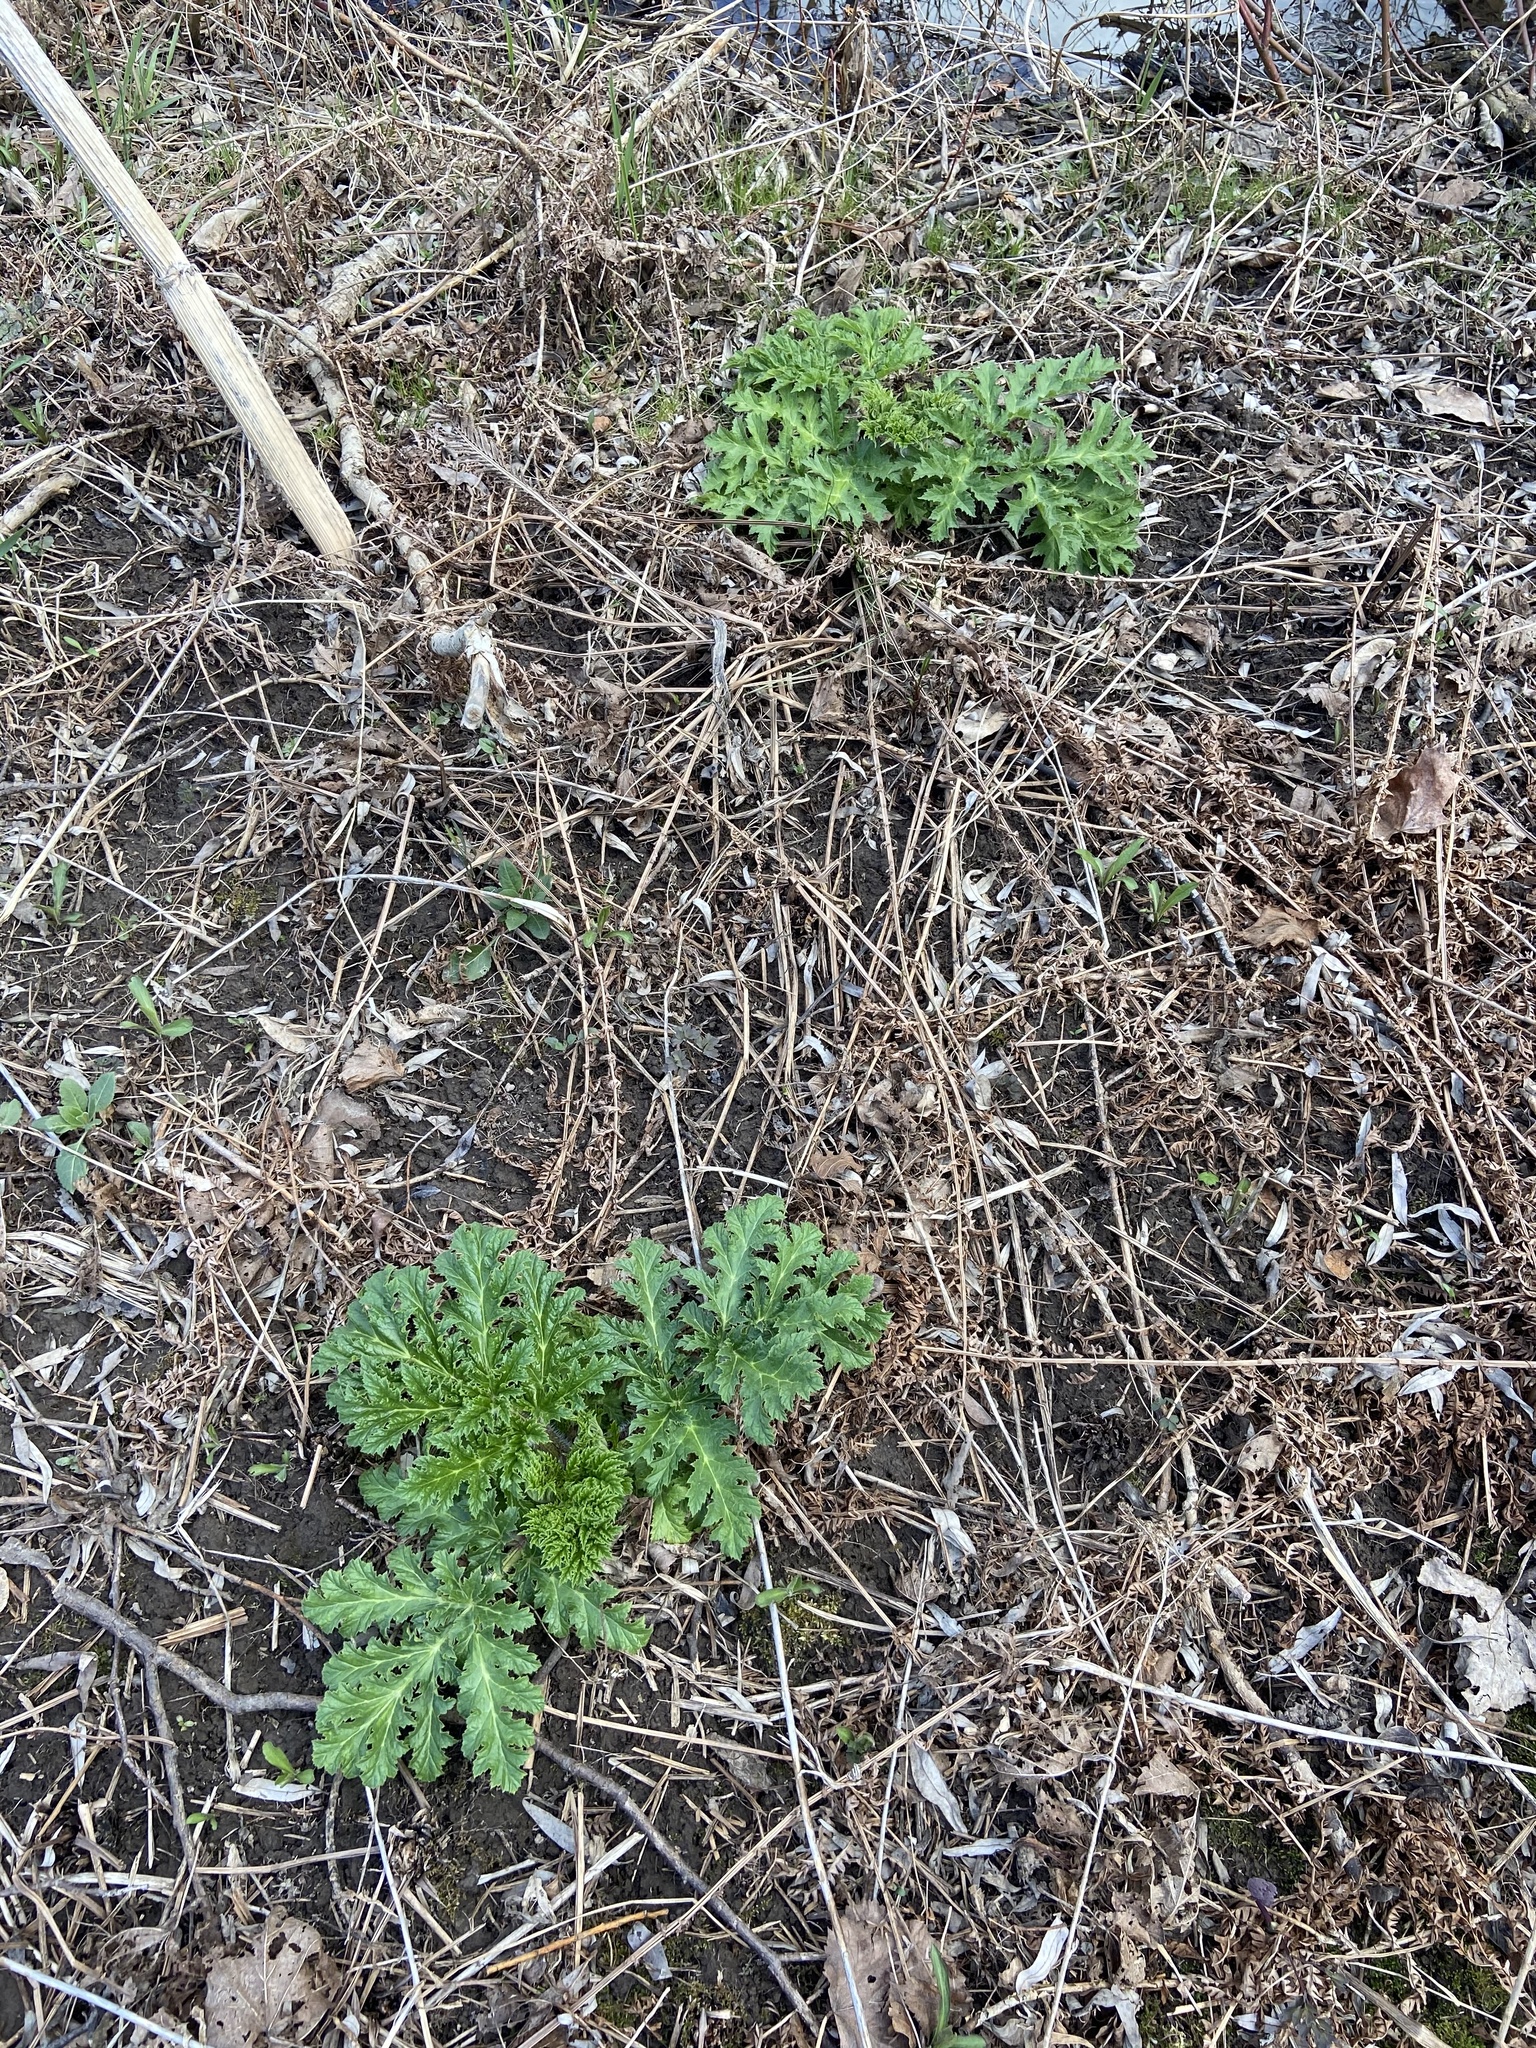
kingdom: Plantae
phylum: Tracheophyta
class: Magnoliopsida
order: Apiales
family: Apiaceae
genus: Heracleum
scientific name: Heracleum mantegazzianum
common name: Giant hogweed
